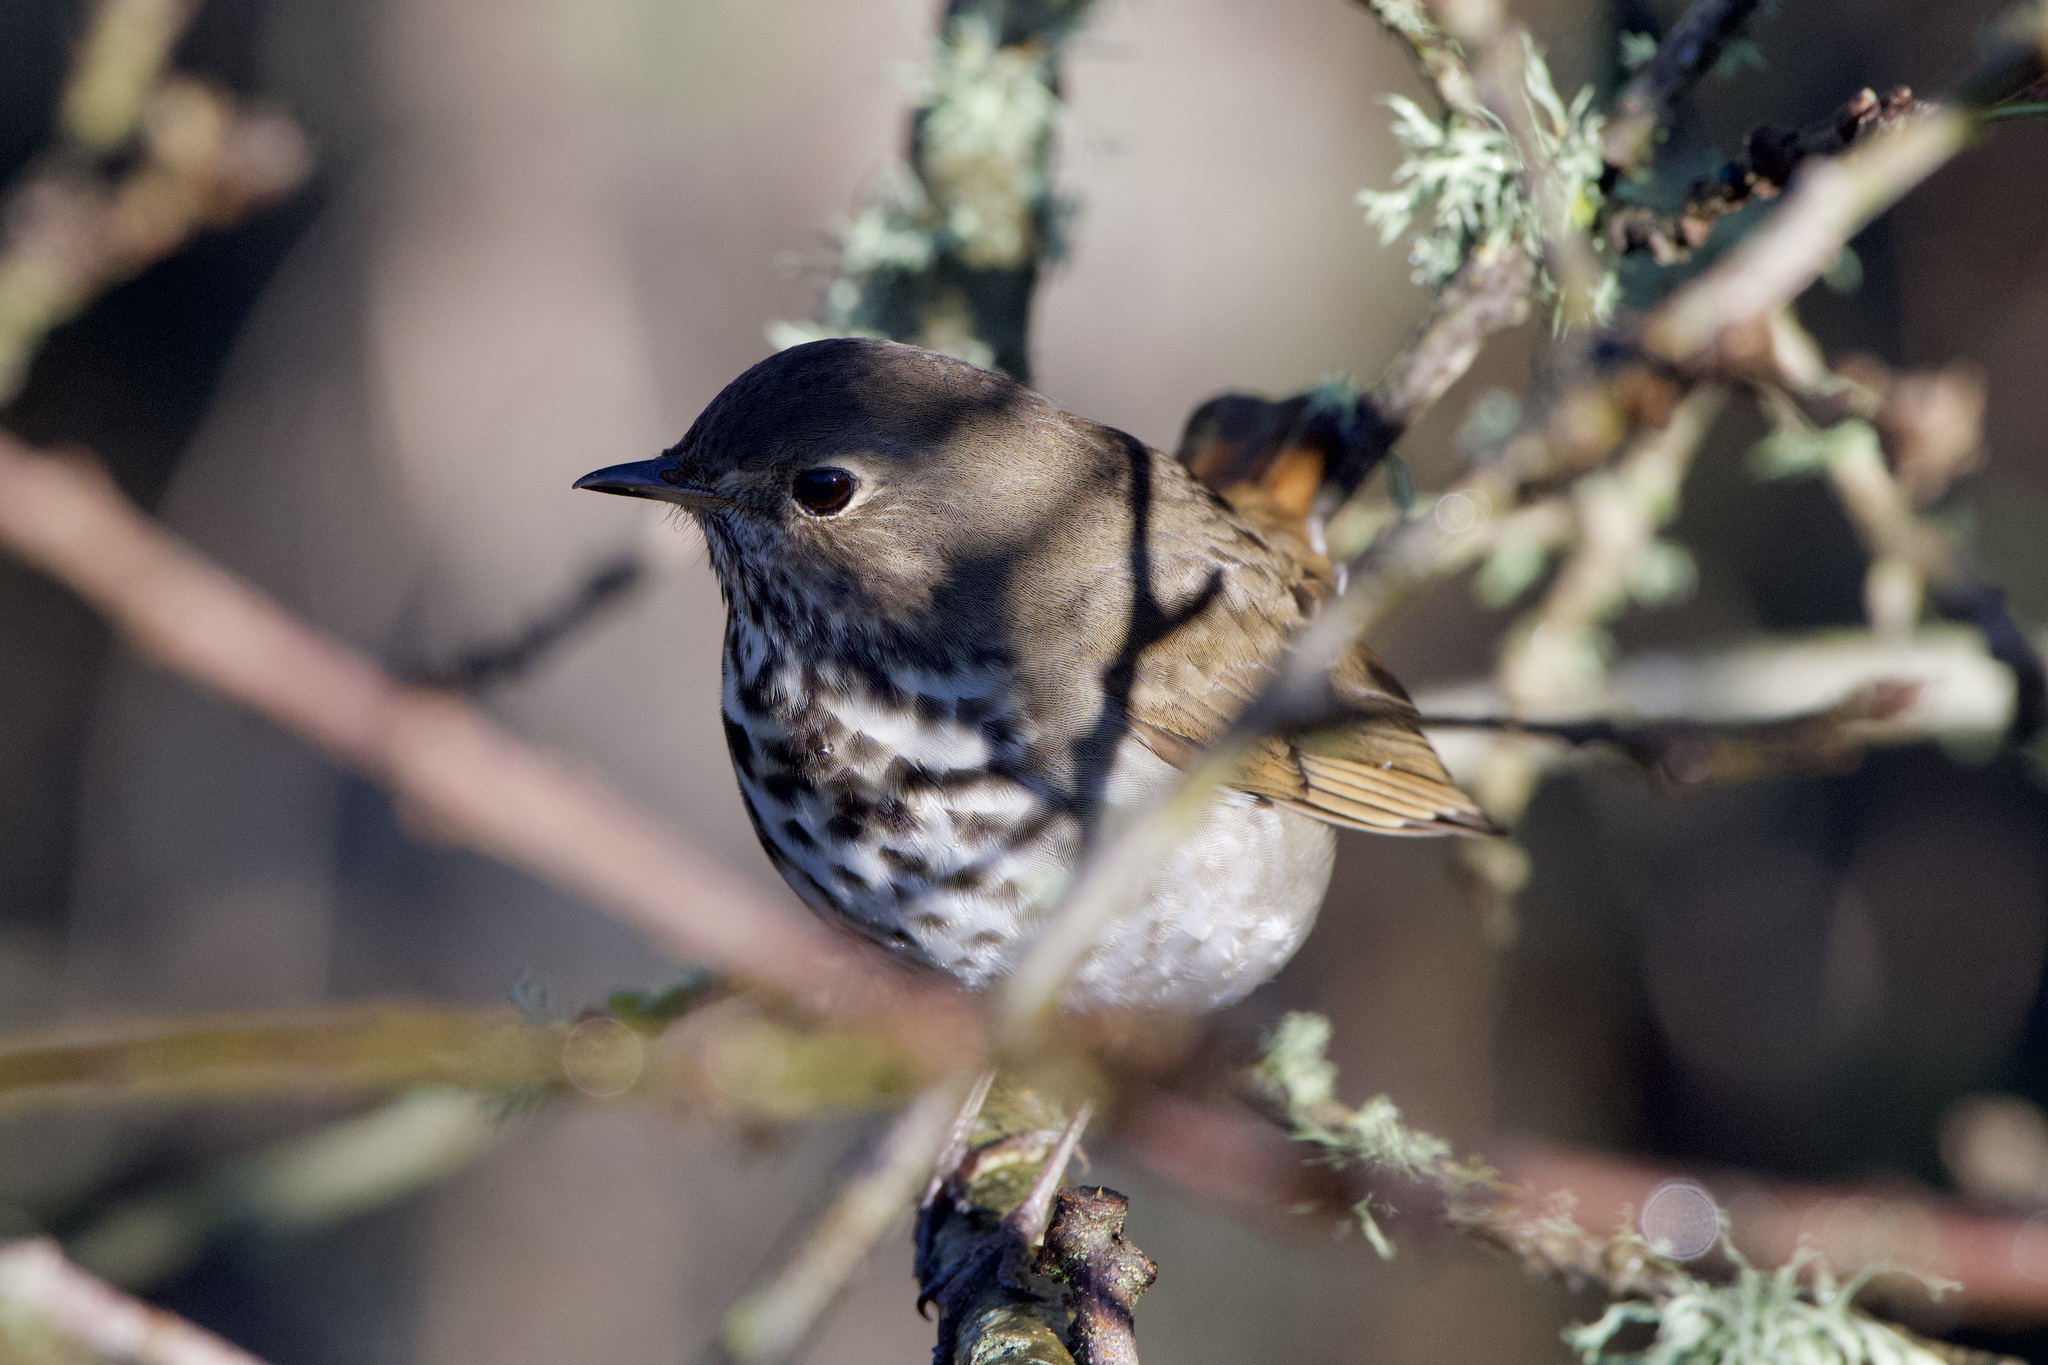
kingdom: Animalia
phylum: Chordata
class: Aves
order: Passeriformes
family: Turdidae
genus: Catharus
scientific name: Catharus guttatus
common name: Hermit thrush
